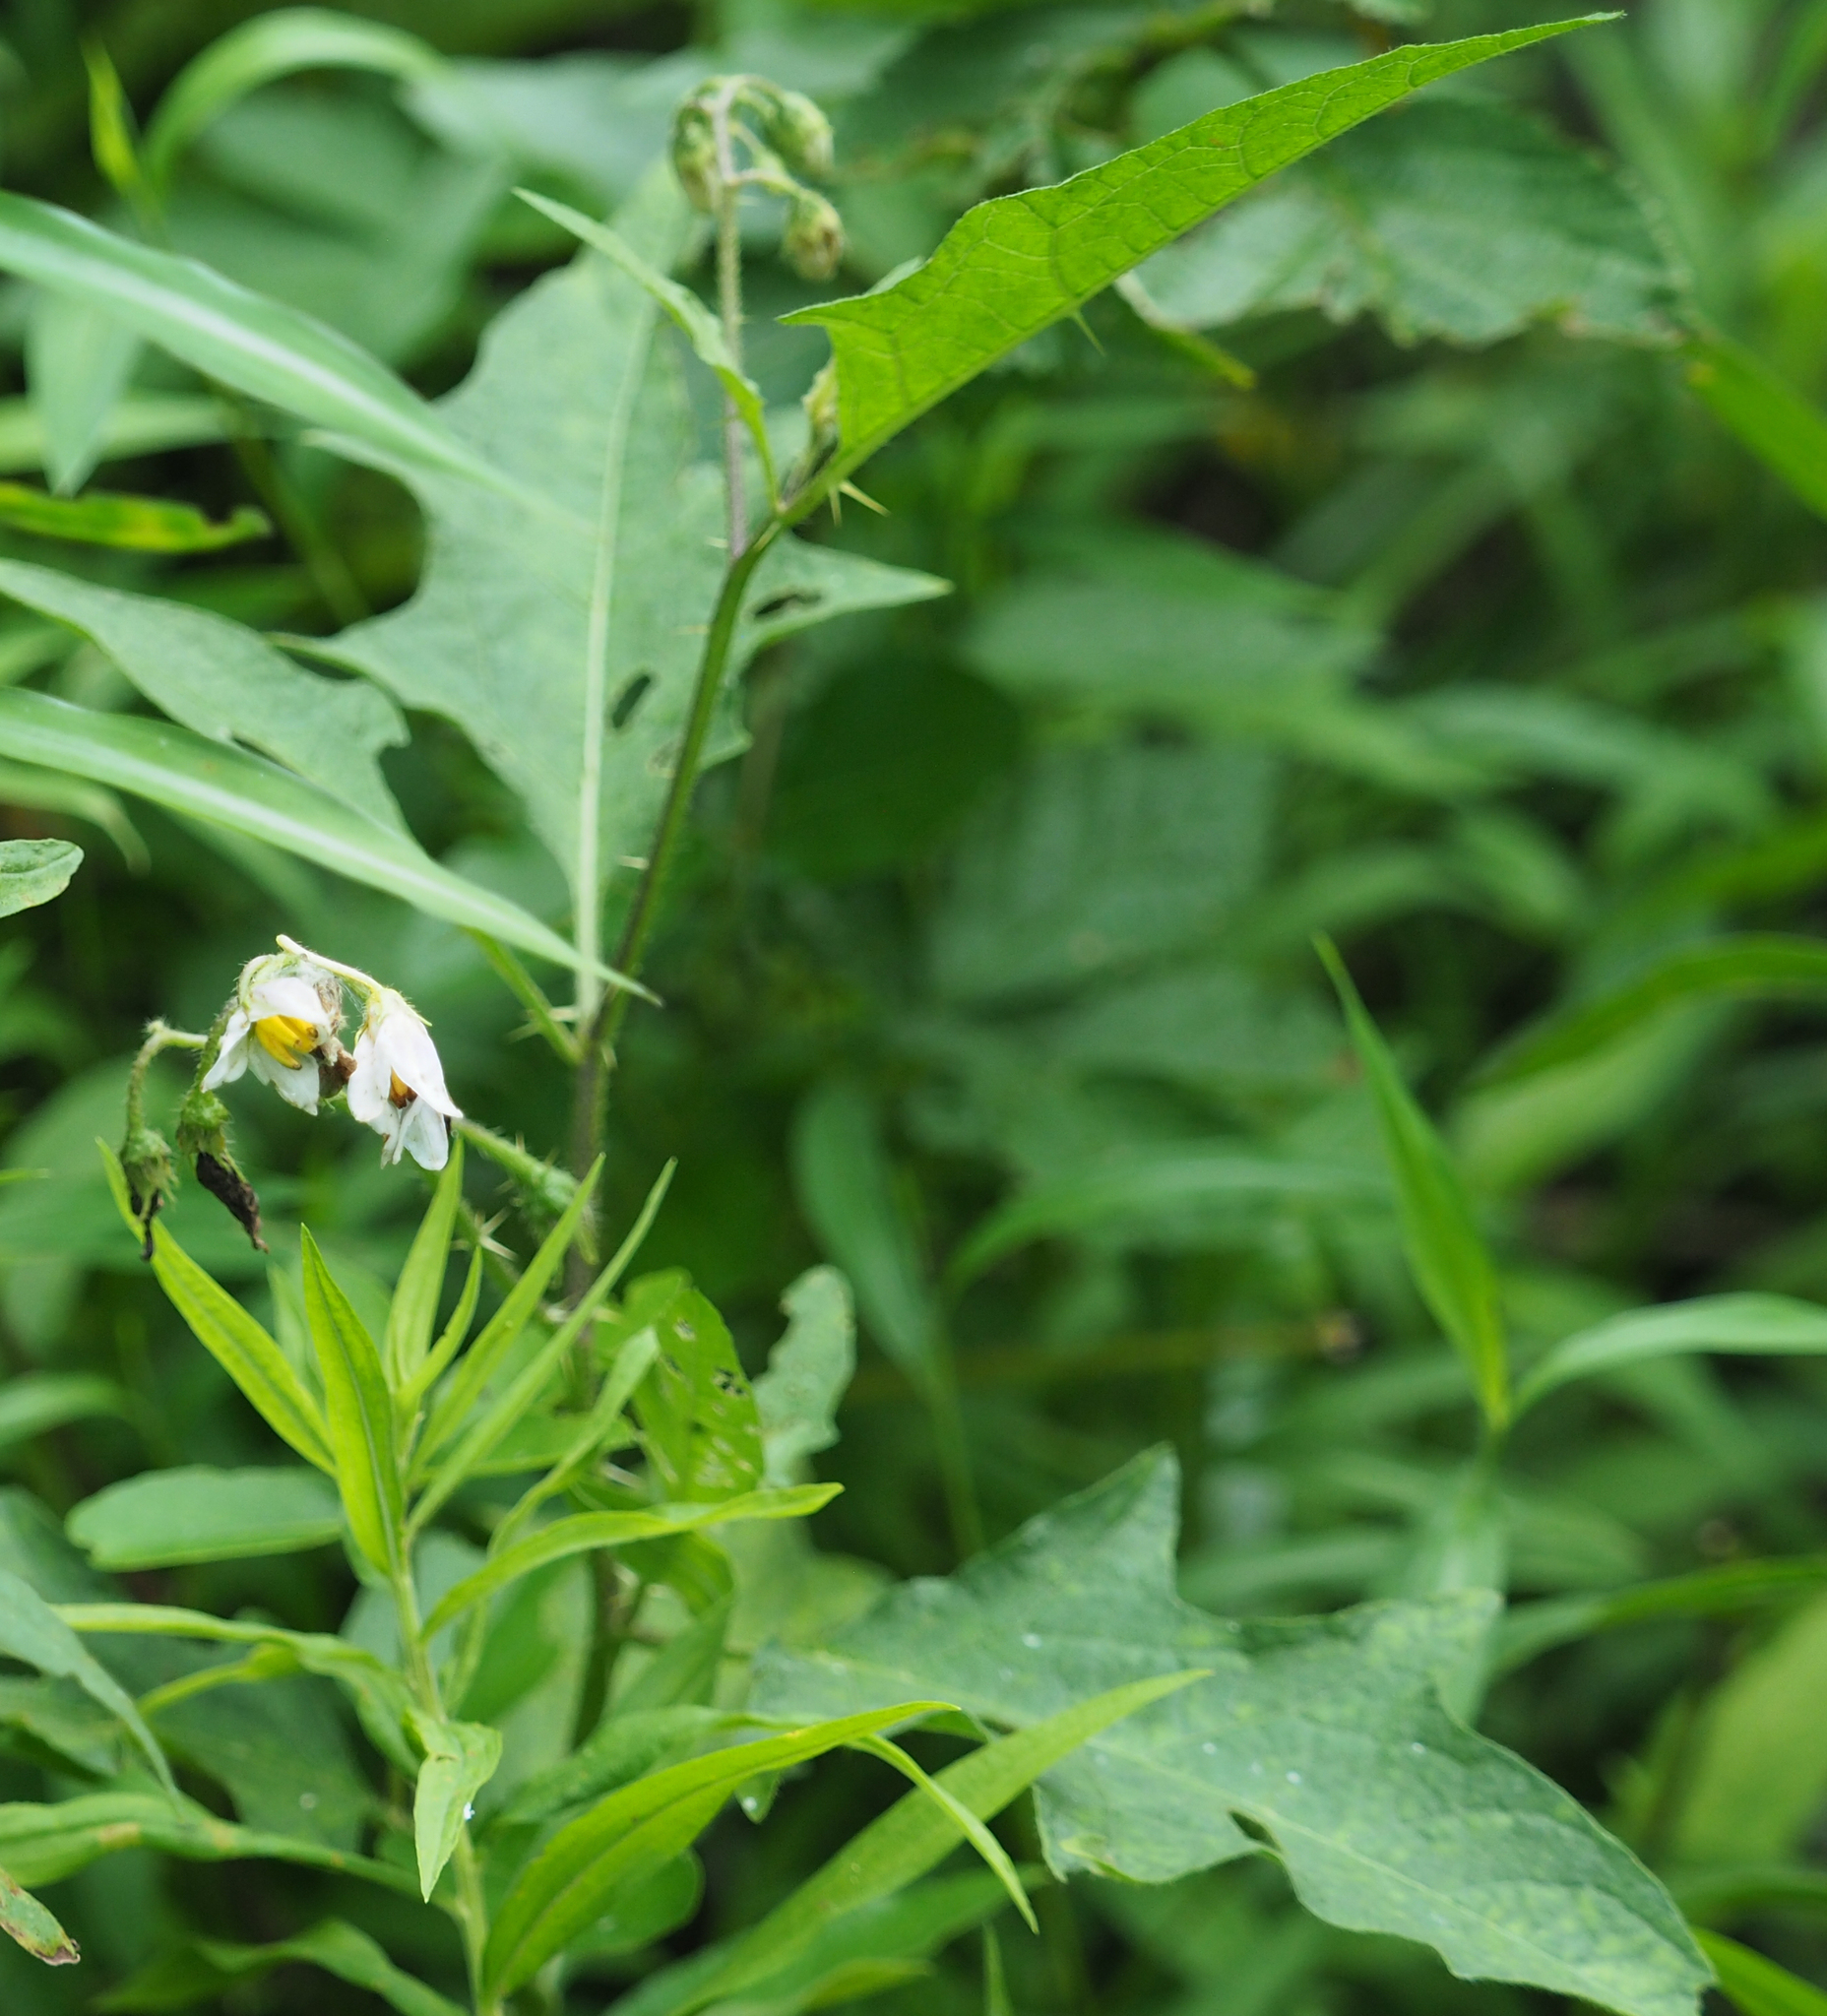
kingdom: Plantae
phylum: Tracheophyta
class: Magnoliopsida
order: Solanales
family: Solanaceae
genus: Solanum
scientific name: Solanum carolinense
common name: Horse-nettle
